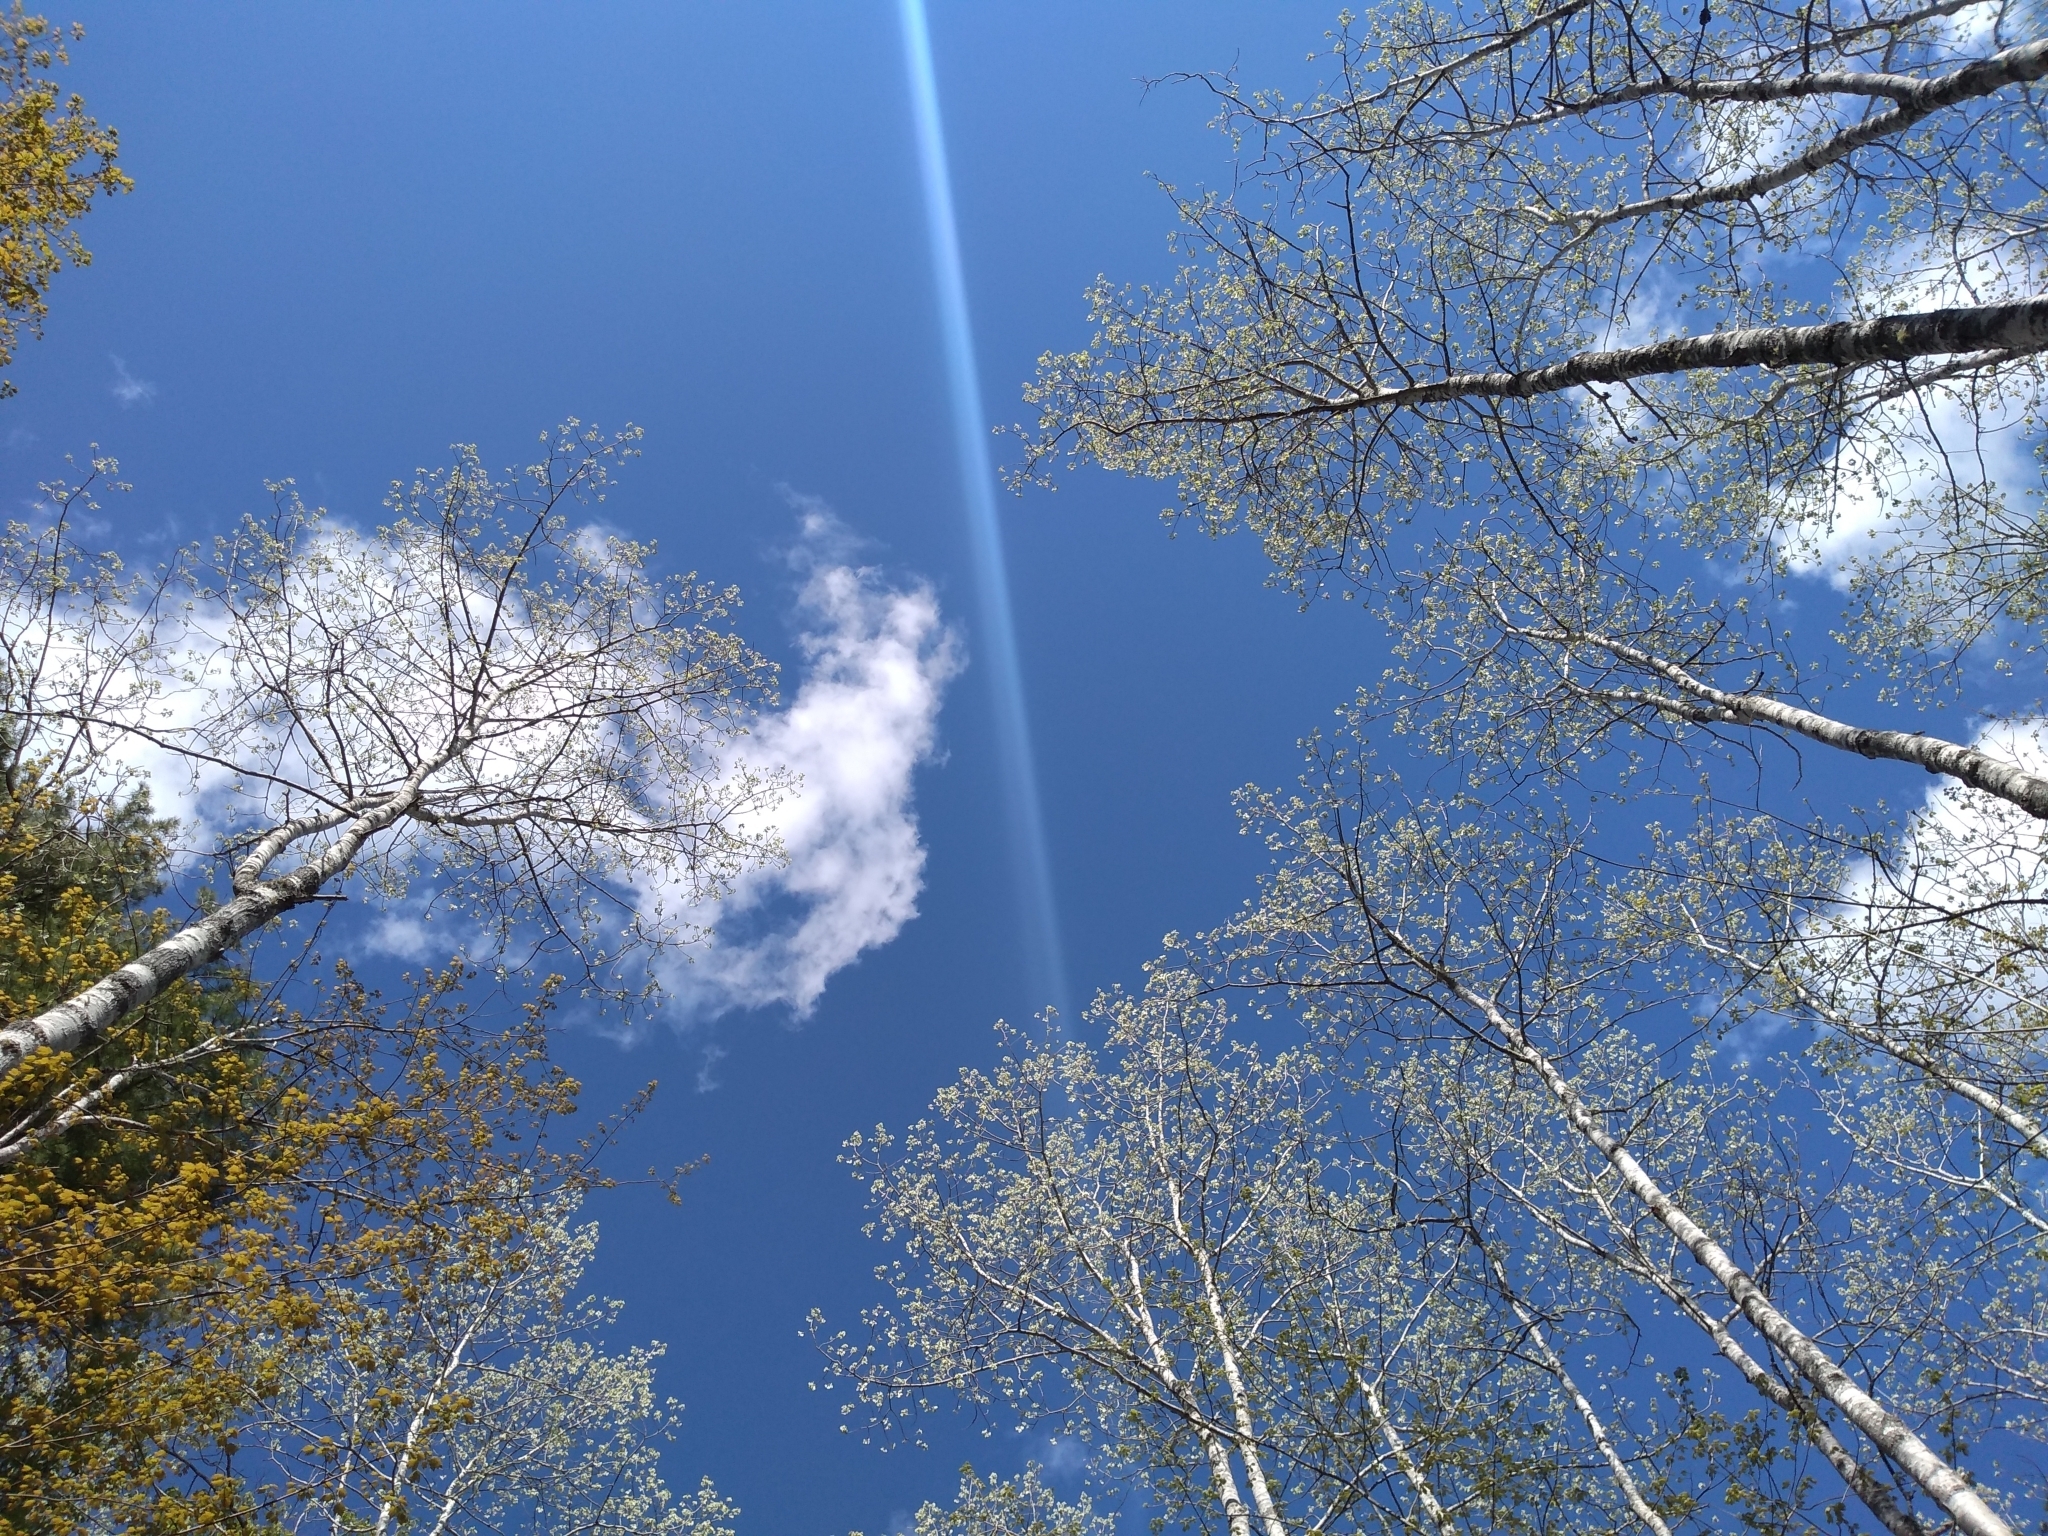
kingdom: Plantae
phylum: Tracheophyta
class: Magnoliopsida
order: Malpighiales
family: Salicaceae
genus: Populus
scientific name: Populus grandidentata
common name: Bigtooth aspen
